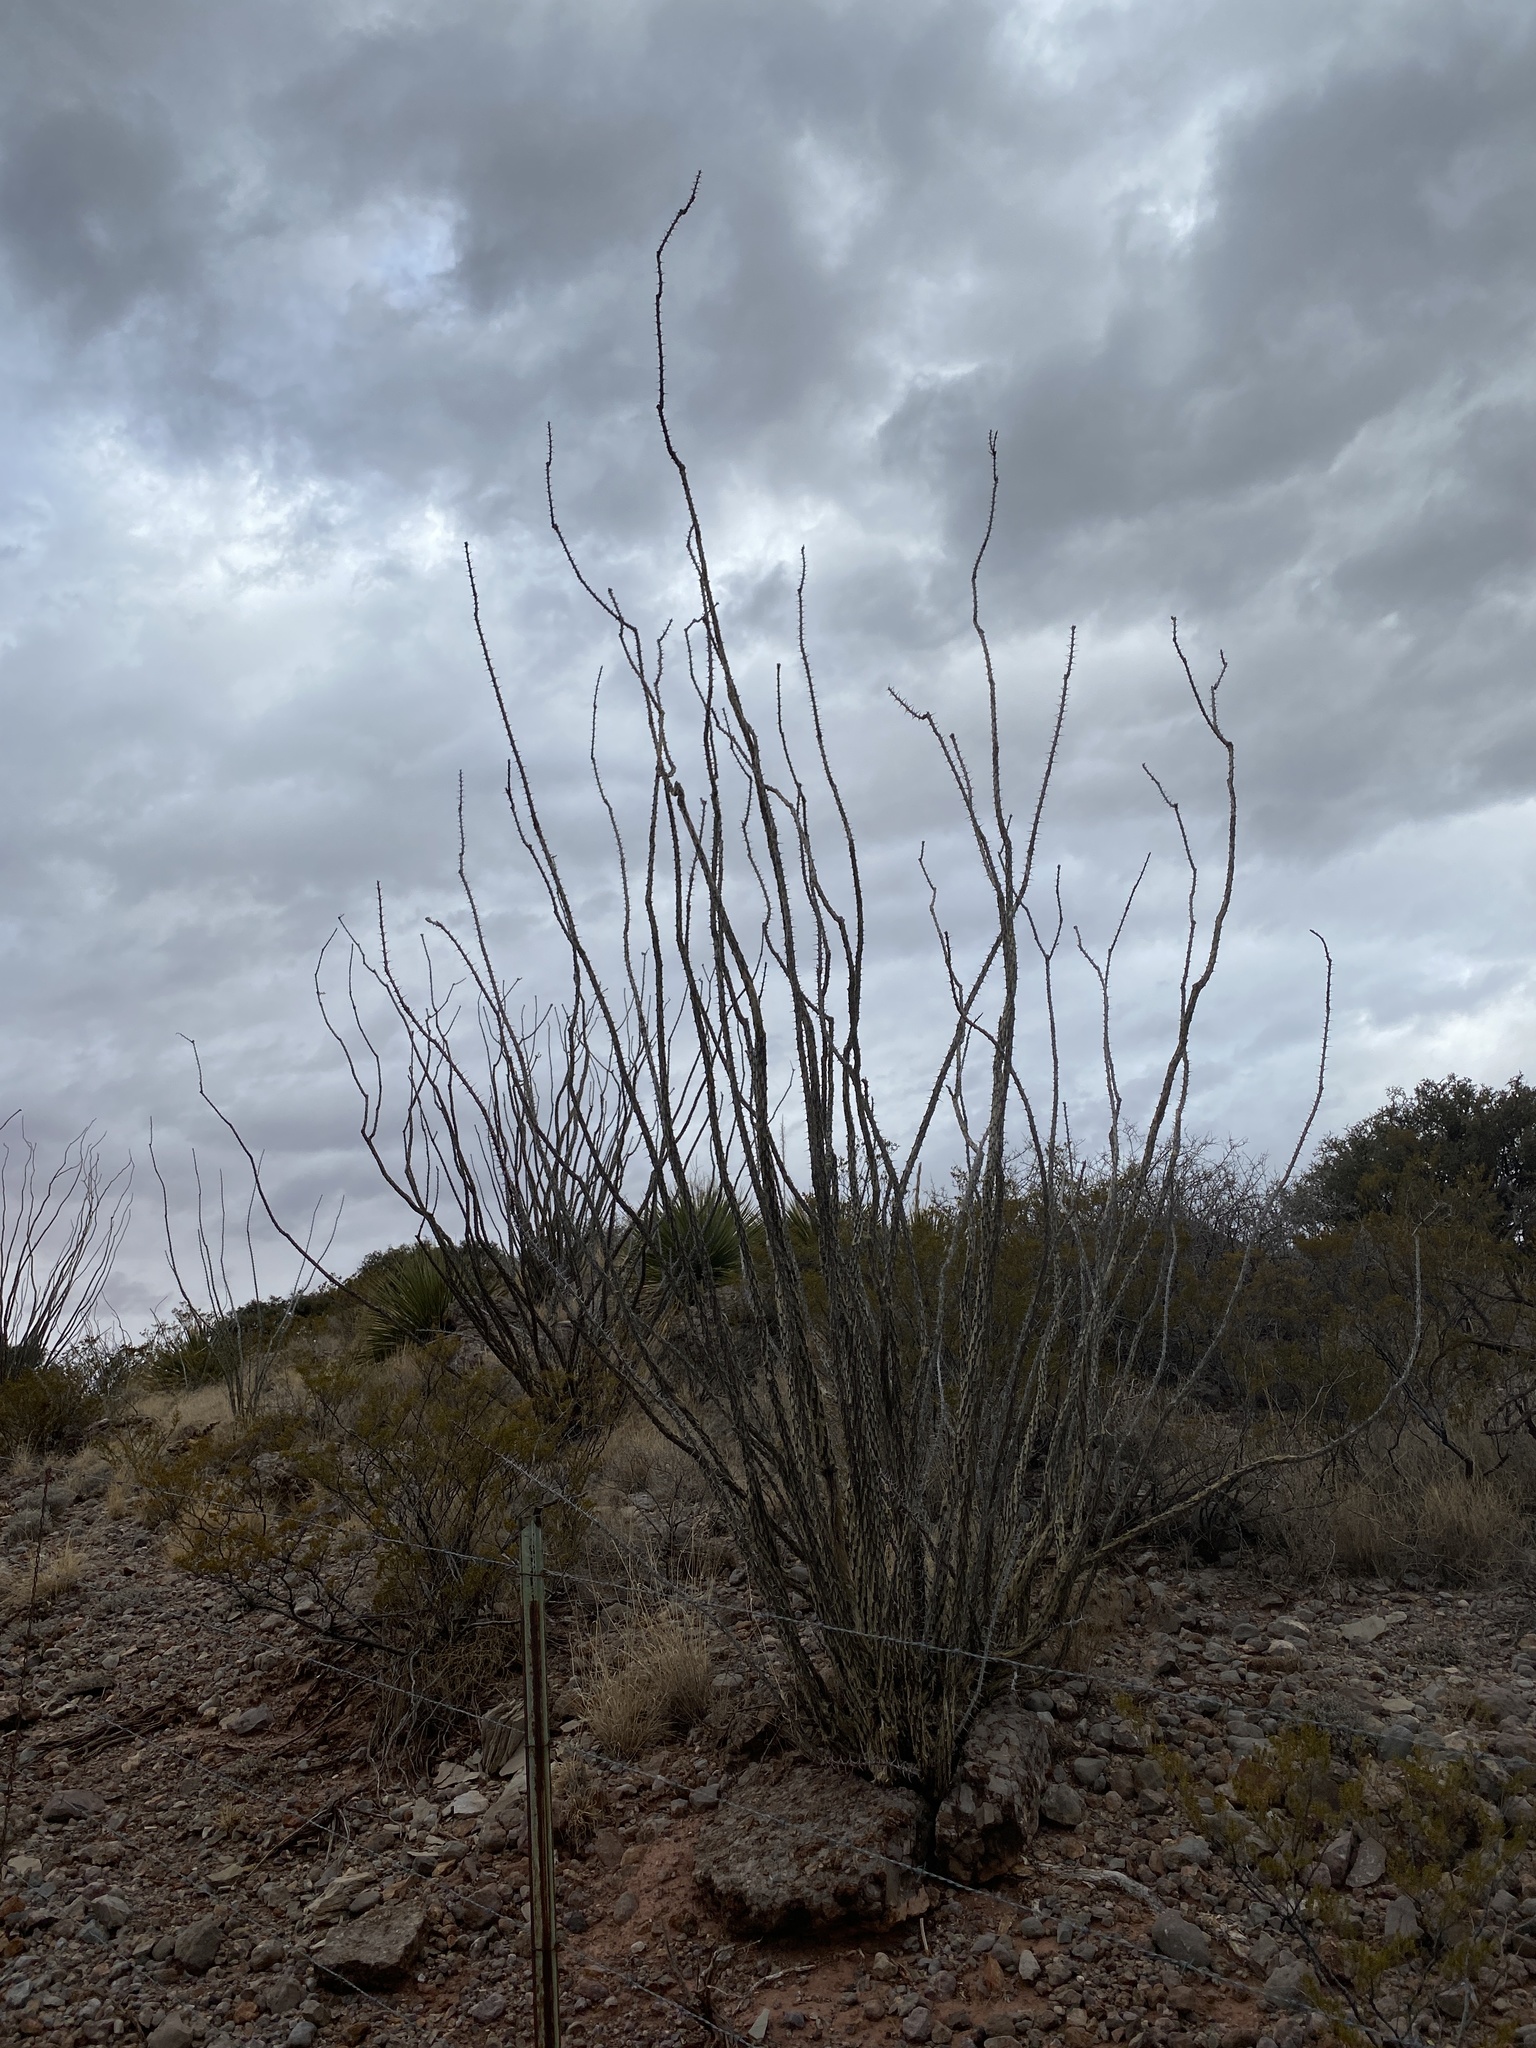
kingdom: Plantae
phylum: Tracheophyta
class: Magnoliopsida
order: Ericales
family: Fouquieriaceae
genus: Fouquieria
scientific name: Fouquieria splendens
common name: Vine-cactus
